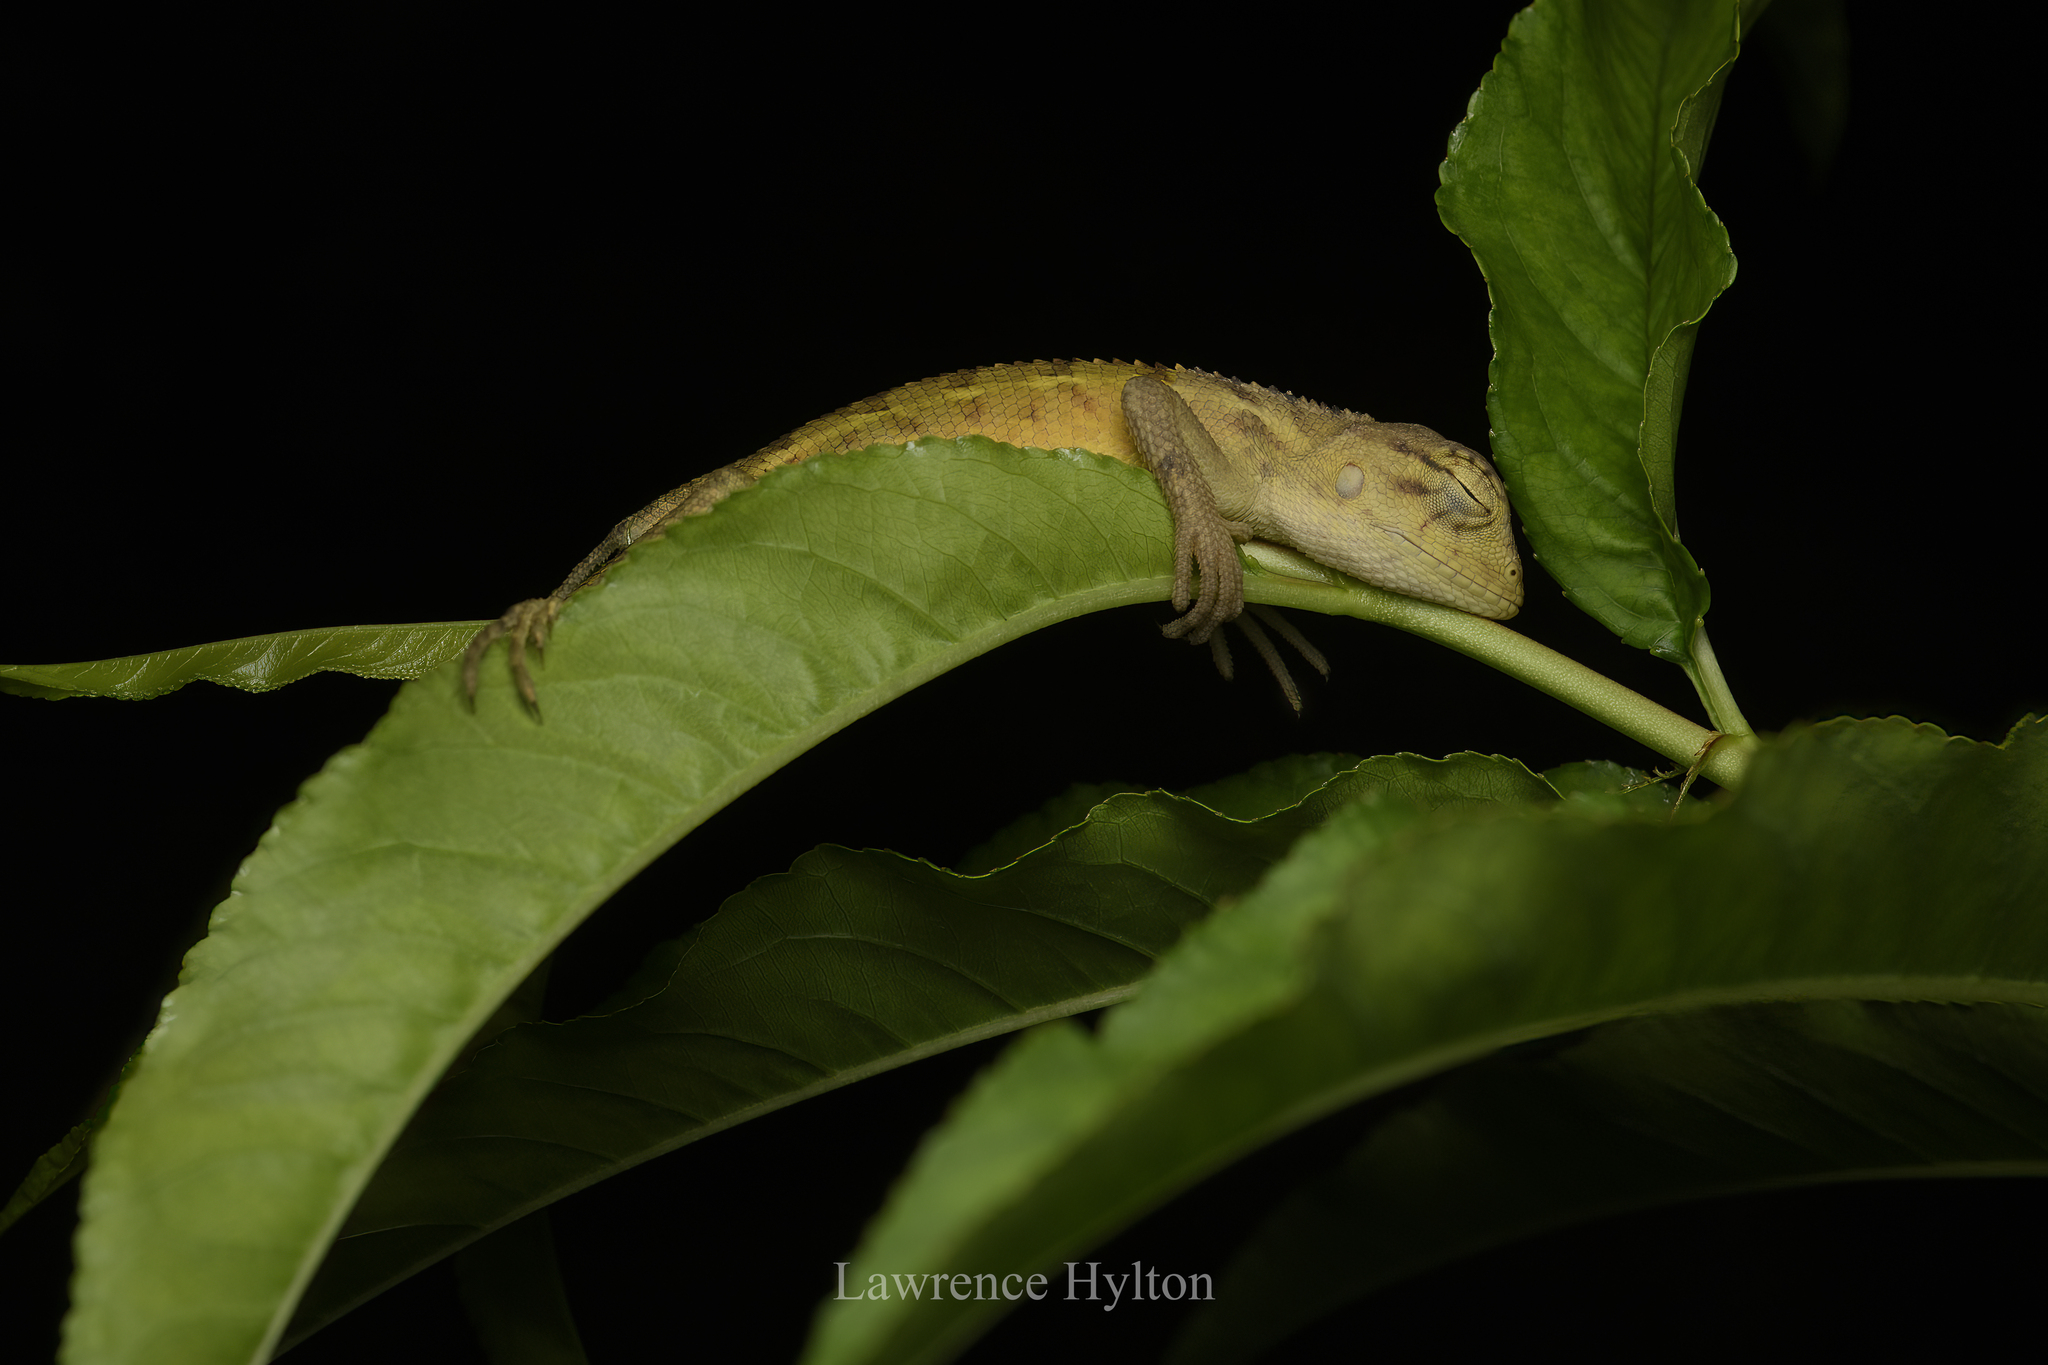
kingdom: Animalia
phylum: Chordata
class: Squamata
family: Agamidae
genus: Calotes
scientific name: Calotes versicolor
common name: Oriental garden lizard
